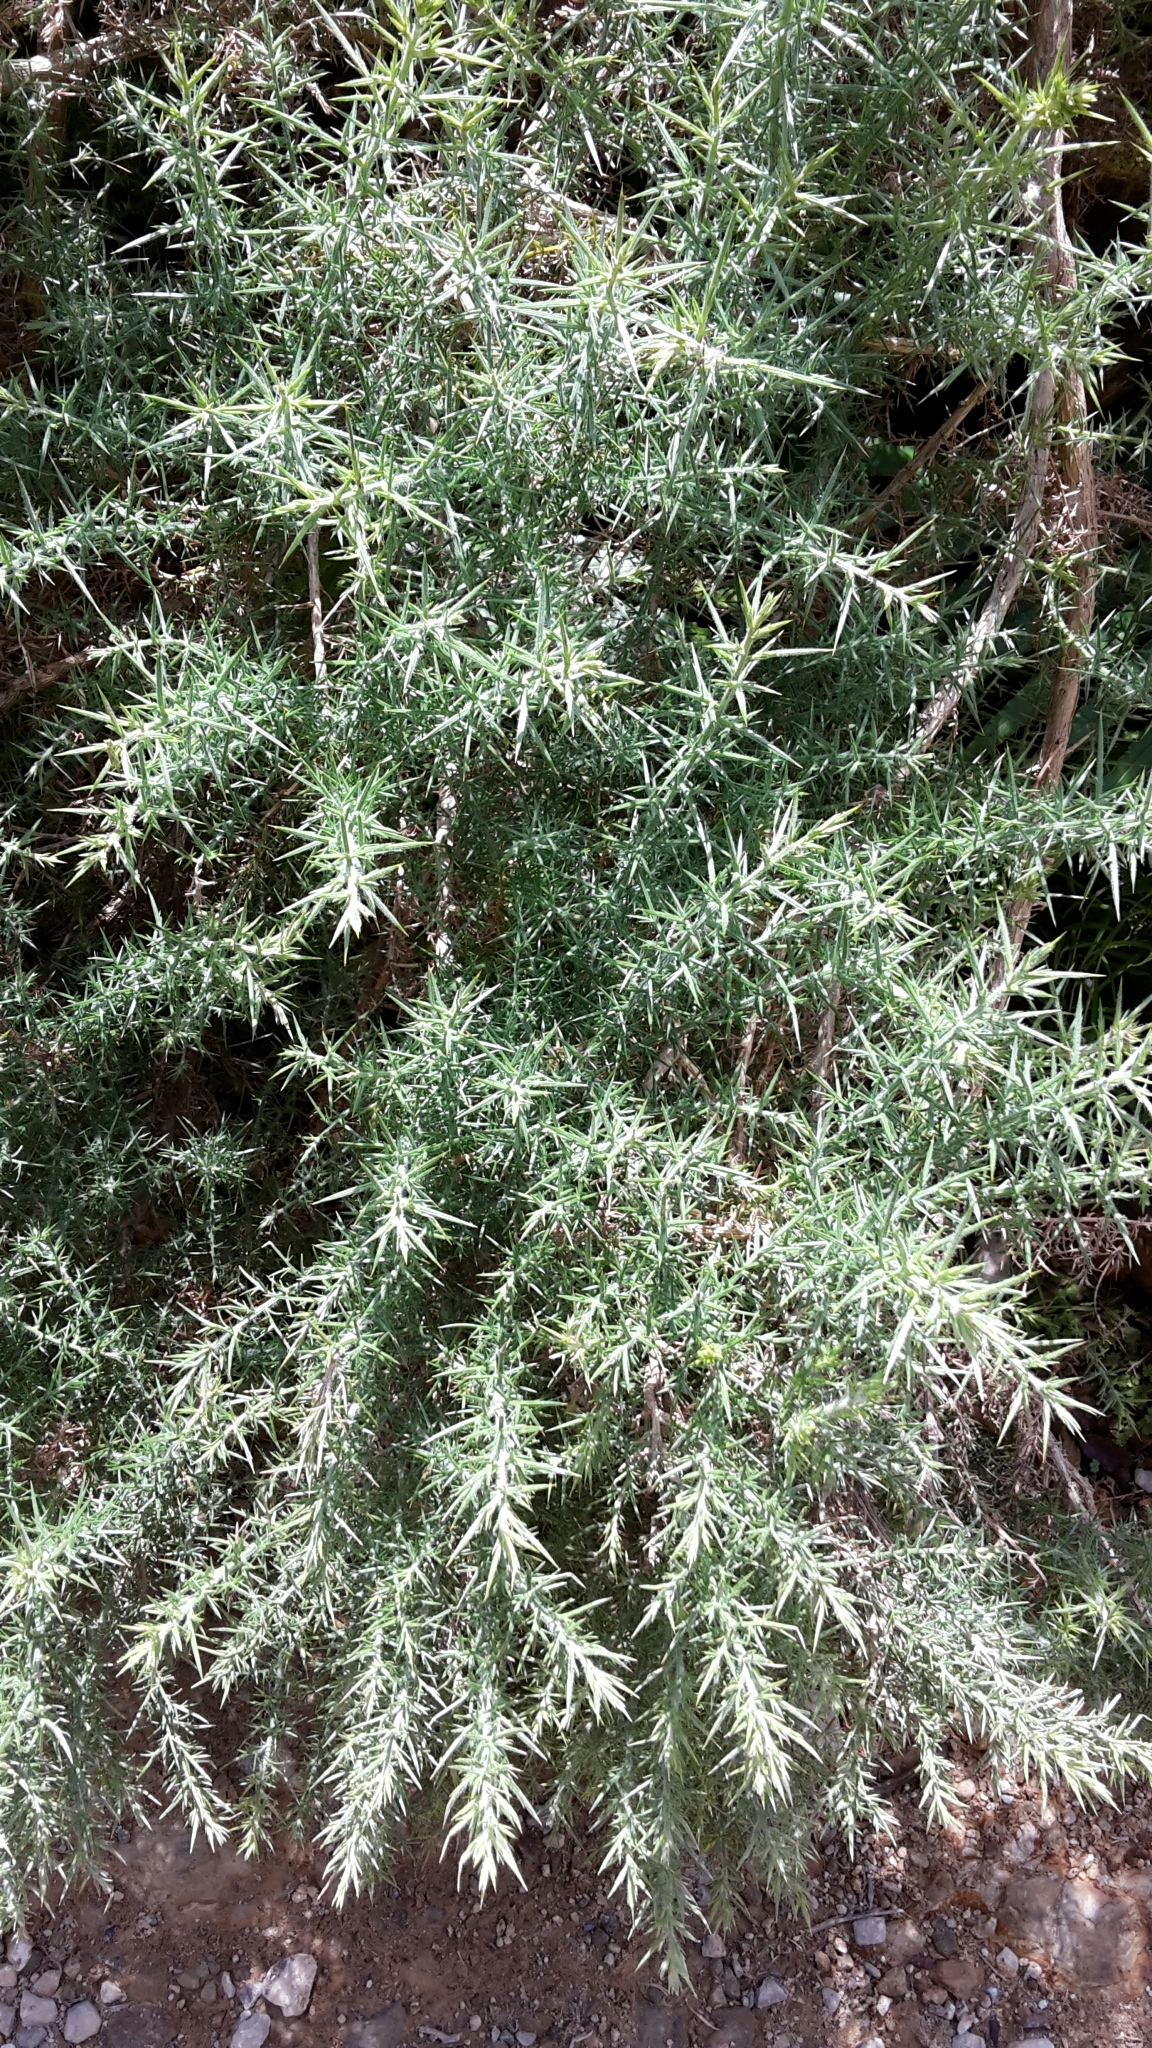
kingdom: Plantae
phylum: Tracheophyta
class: Magnoliopsida
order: Fabales
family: Fabaceae
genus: Ulex
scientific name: Ulex europaeus
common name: Common gorse
